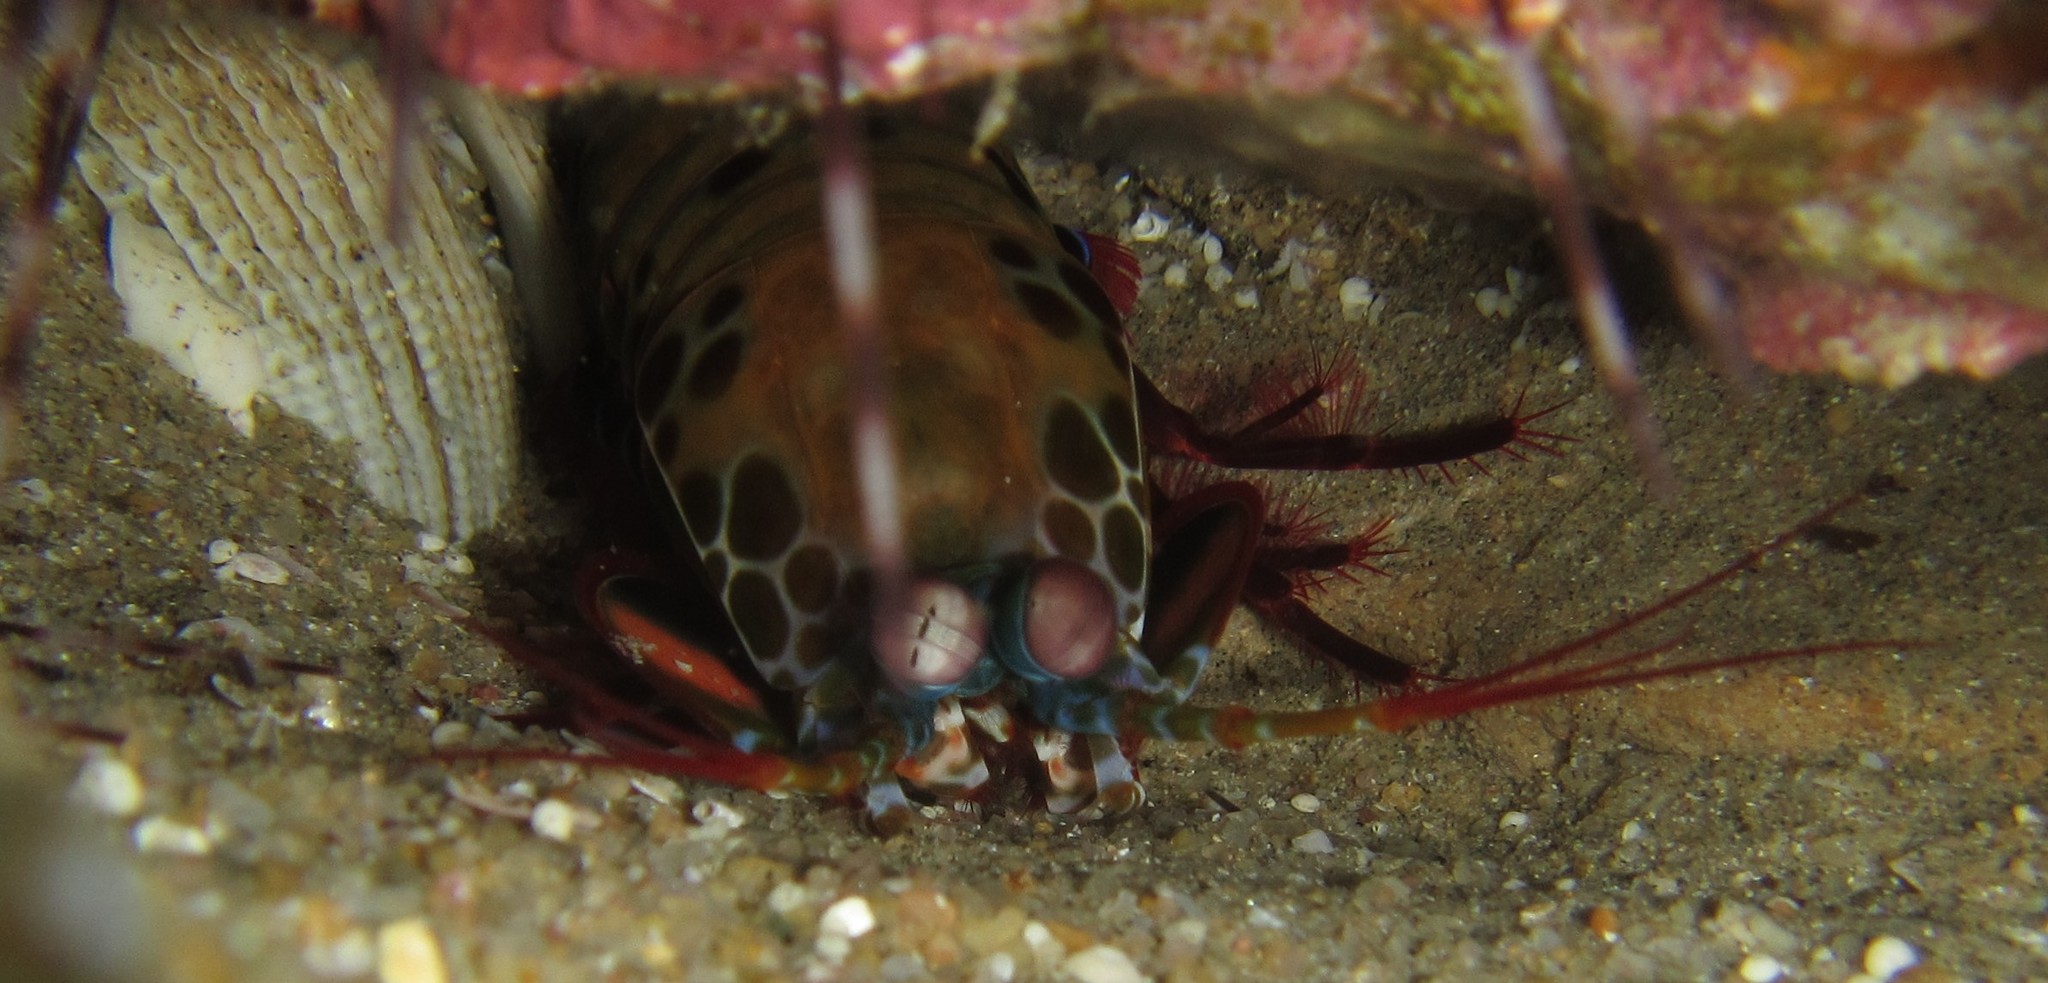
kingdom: Animalia
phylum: Arthropoda
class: Malacostraca
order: Stomatopoda
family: Odontodactylidae
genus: Odontodactylus
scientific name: Odontodactylus scyllarus
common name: Peacock mantis shrimp
